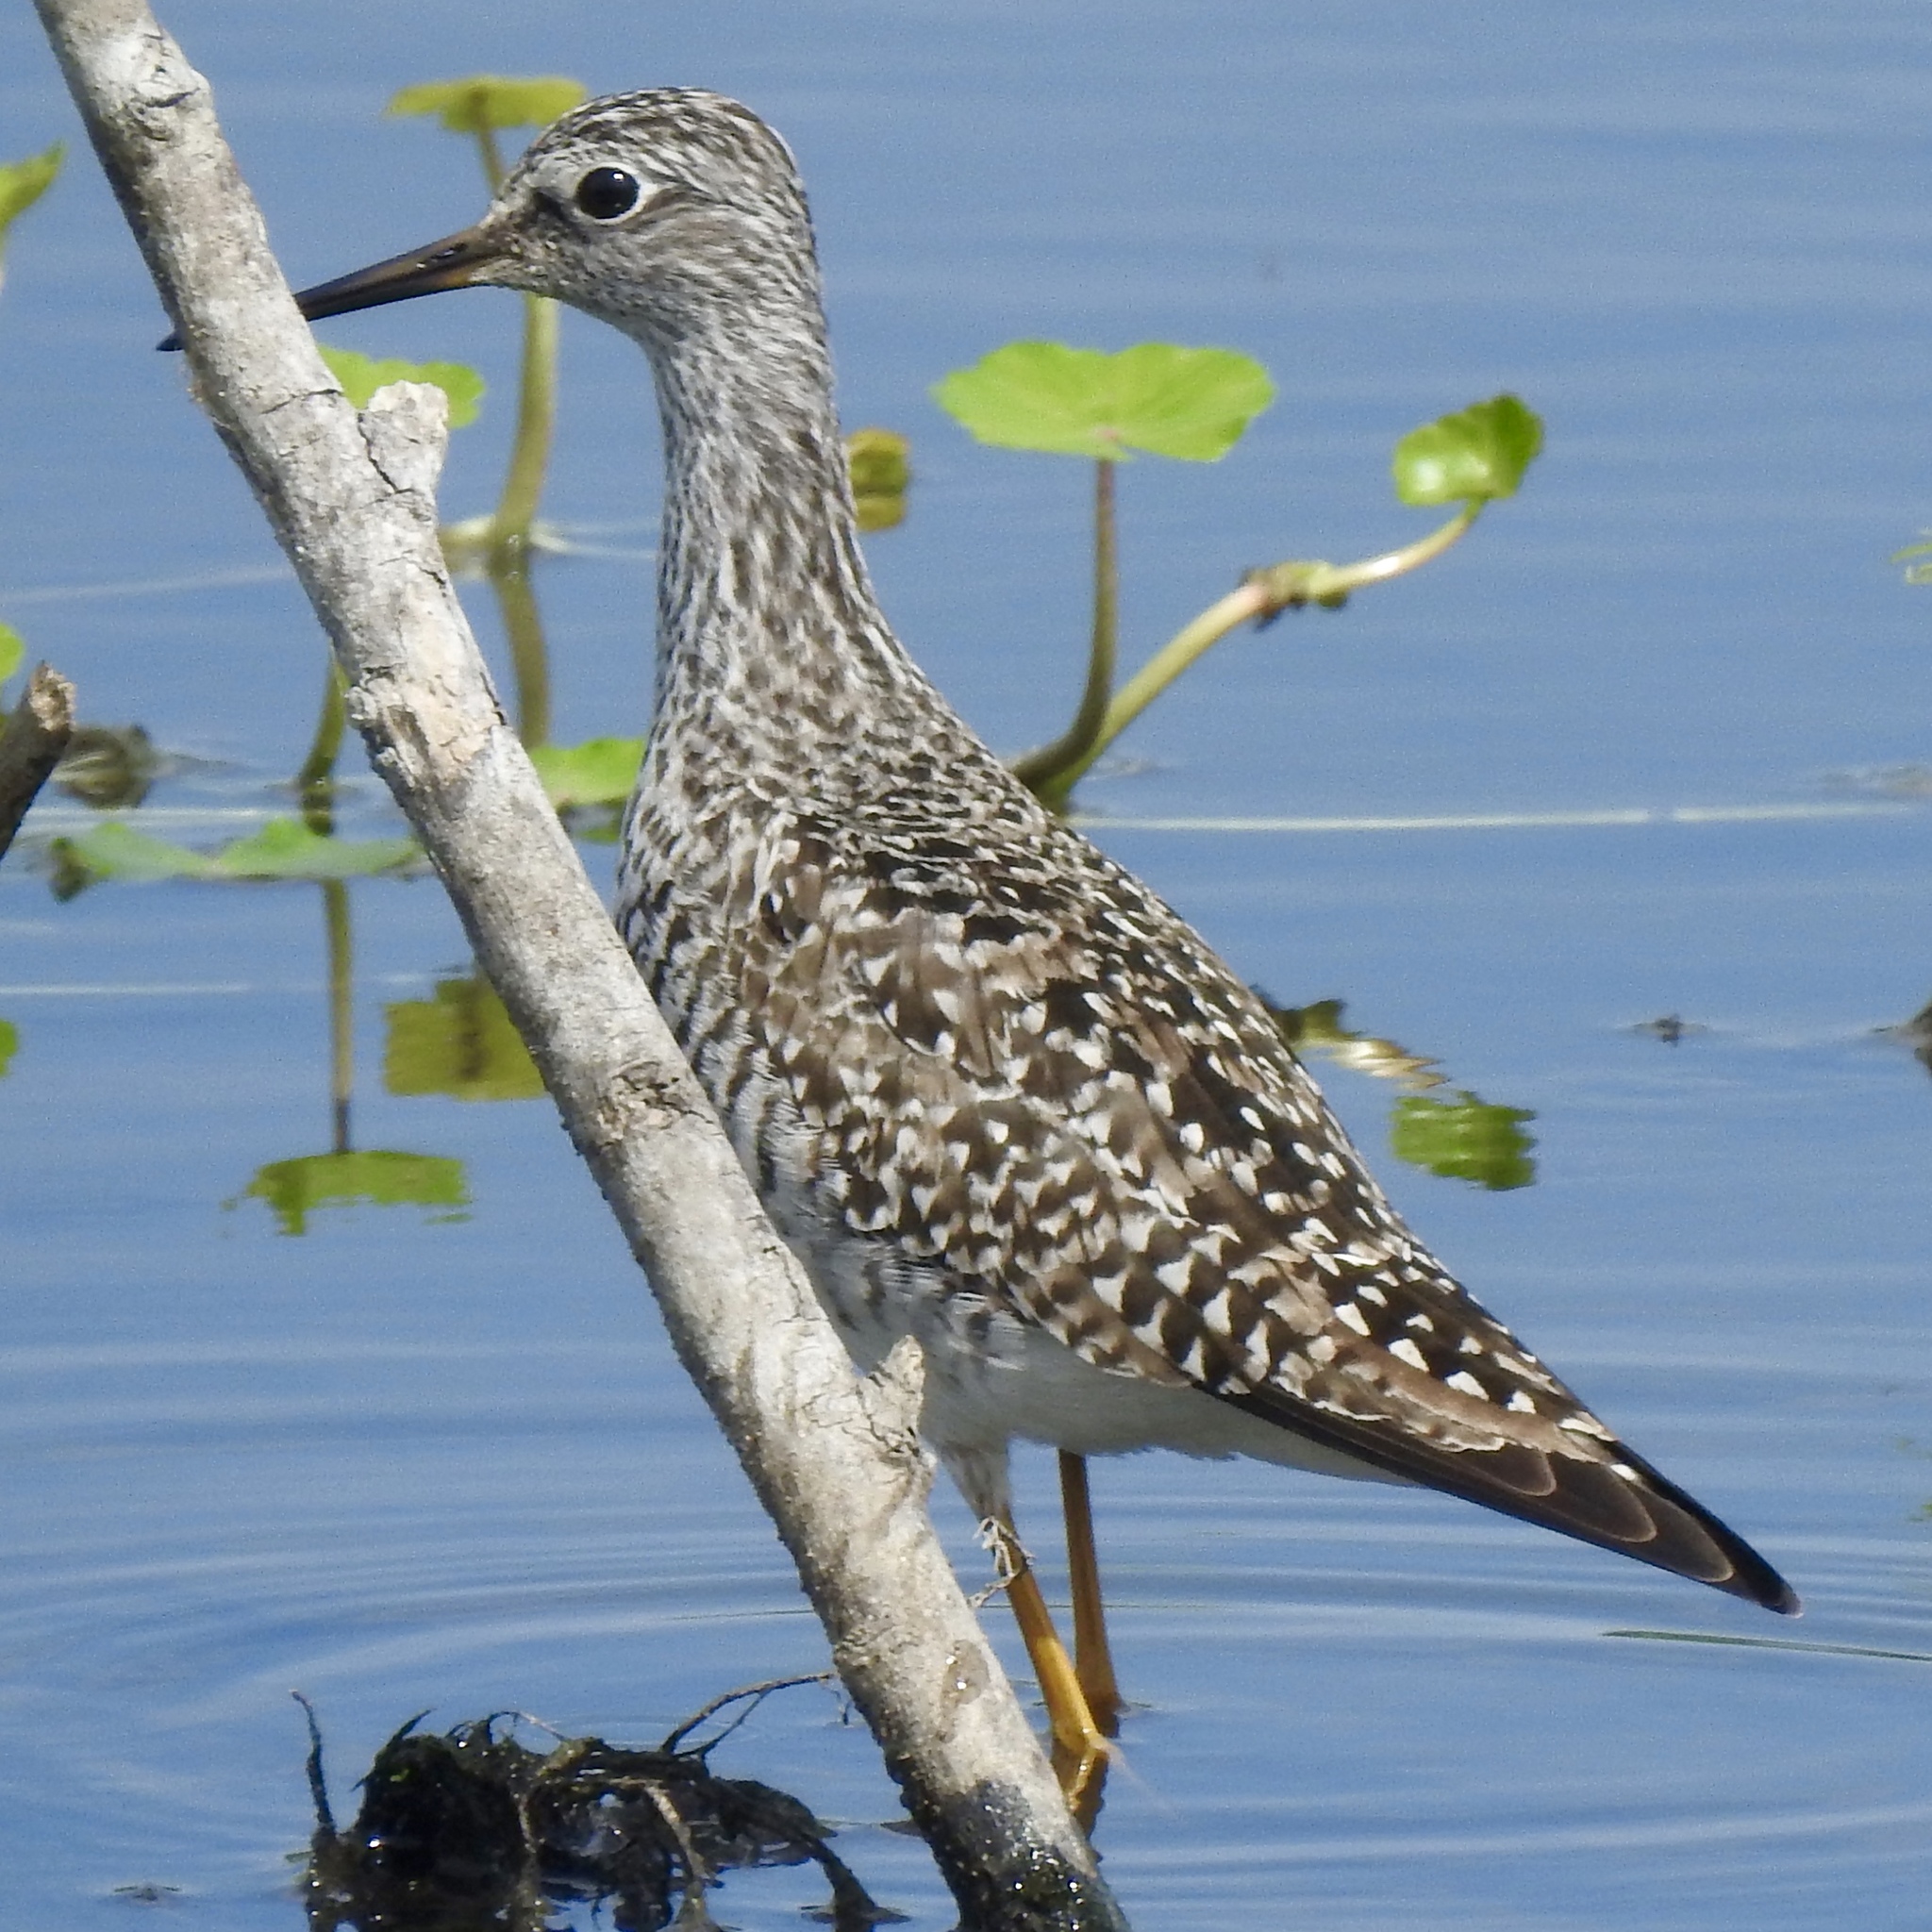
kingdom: Animalia
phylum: Chordata
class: Aves
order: Charadriiformes
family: Scolopacidae
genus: Tringa
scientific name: Tringa flavipes
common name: Lesser yellowlegs
